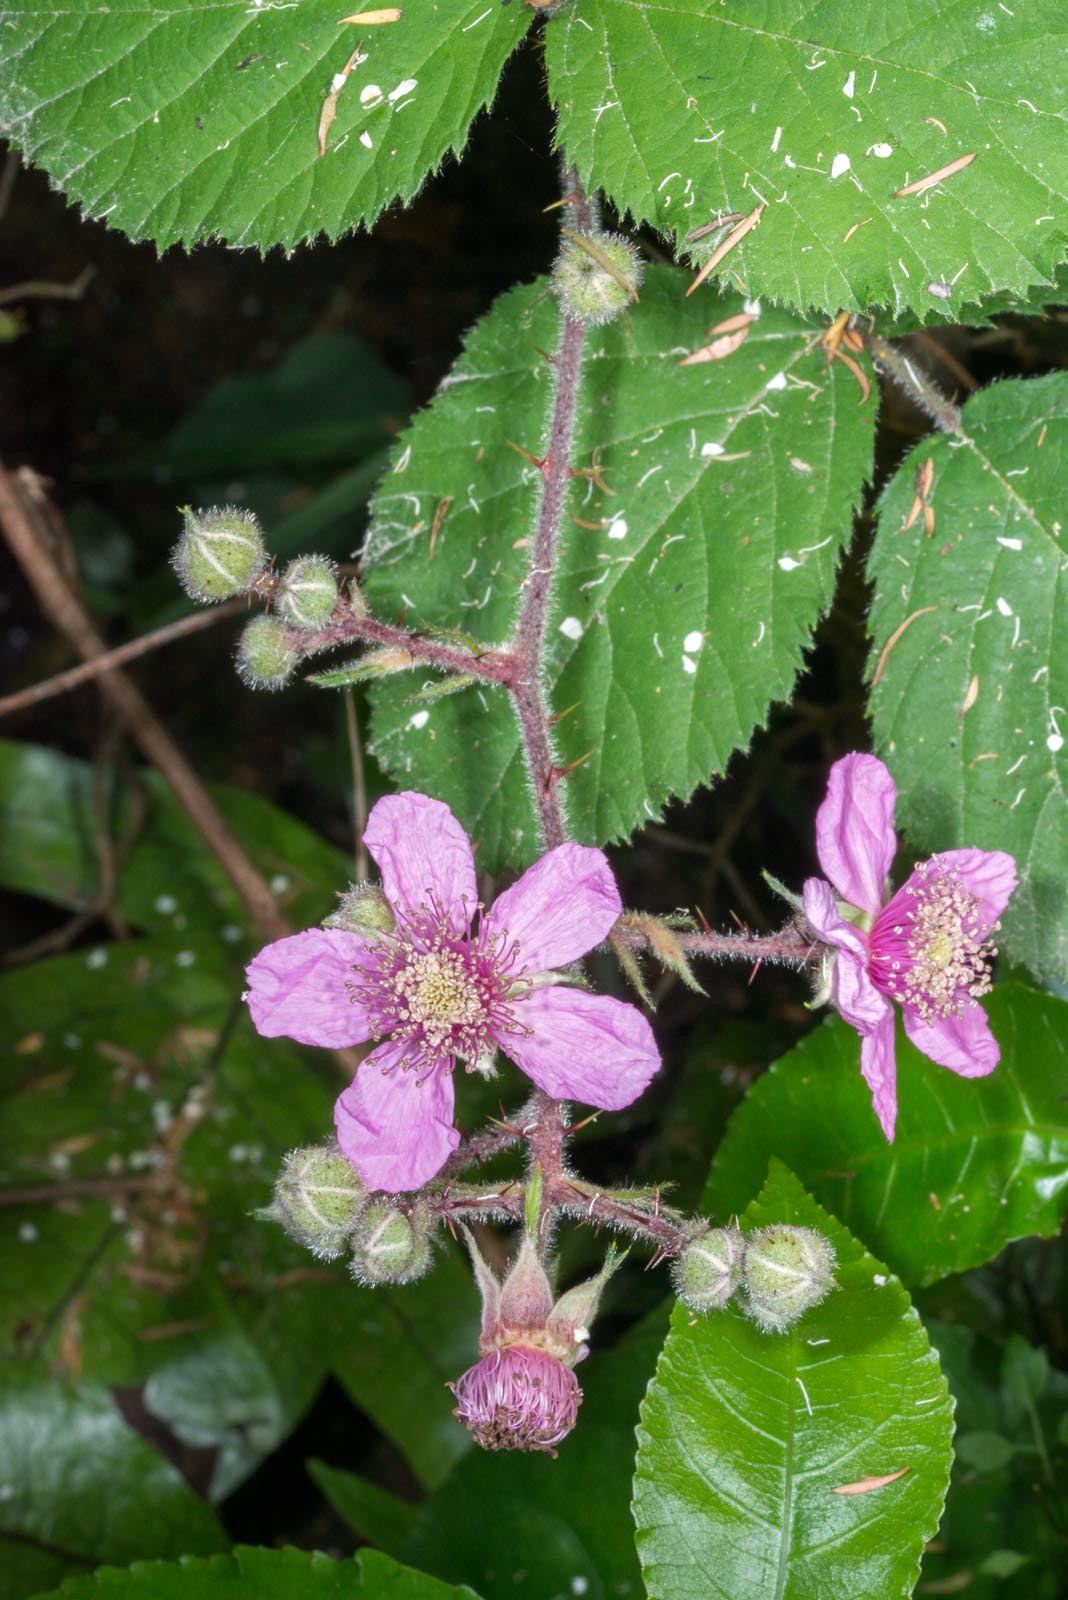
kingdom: Plantae
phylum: Tracheophyta
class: Magnoliopsida
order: Rosales
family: Rosaceae
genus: Rubus
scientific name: Rubus vestitus
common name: European blackberry
